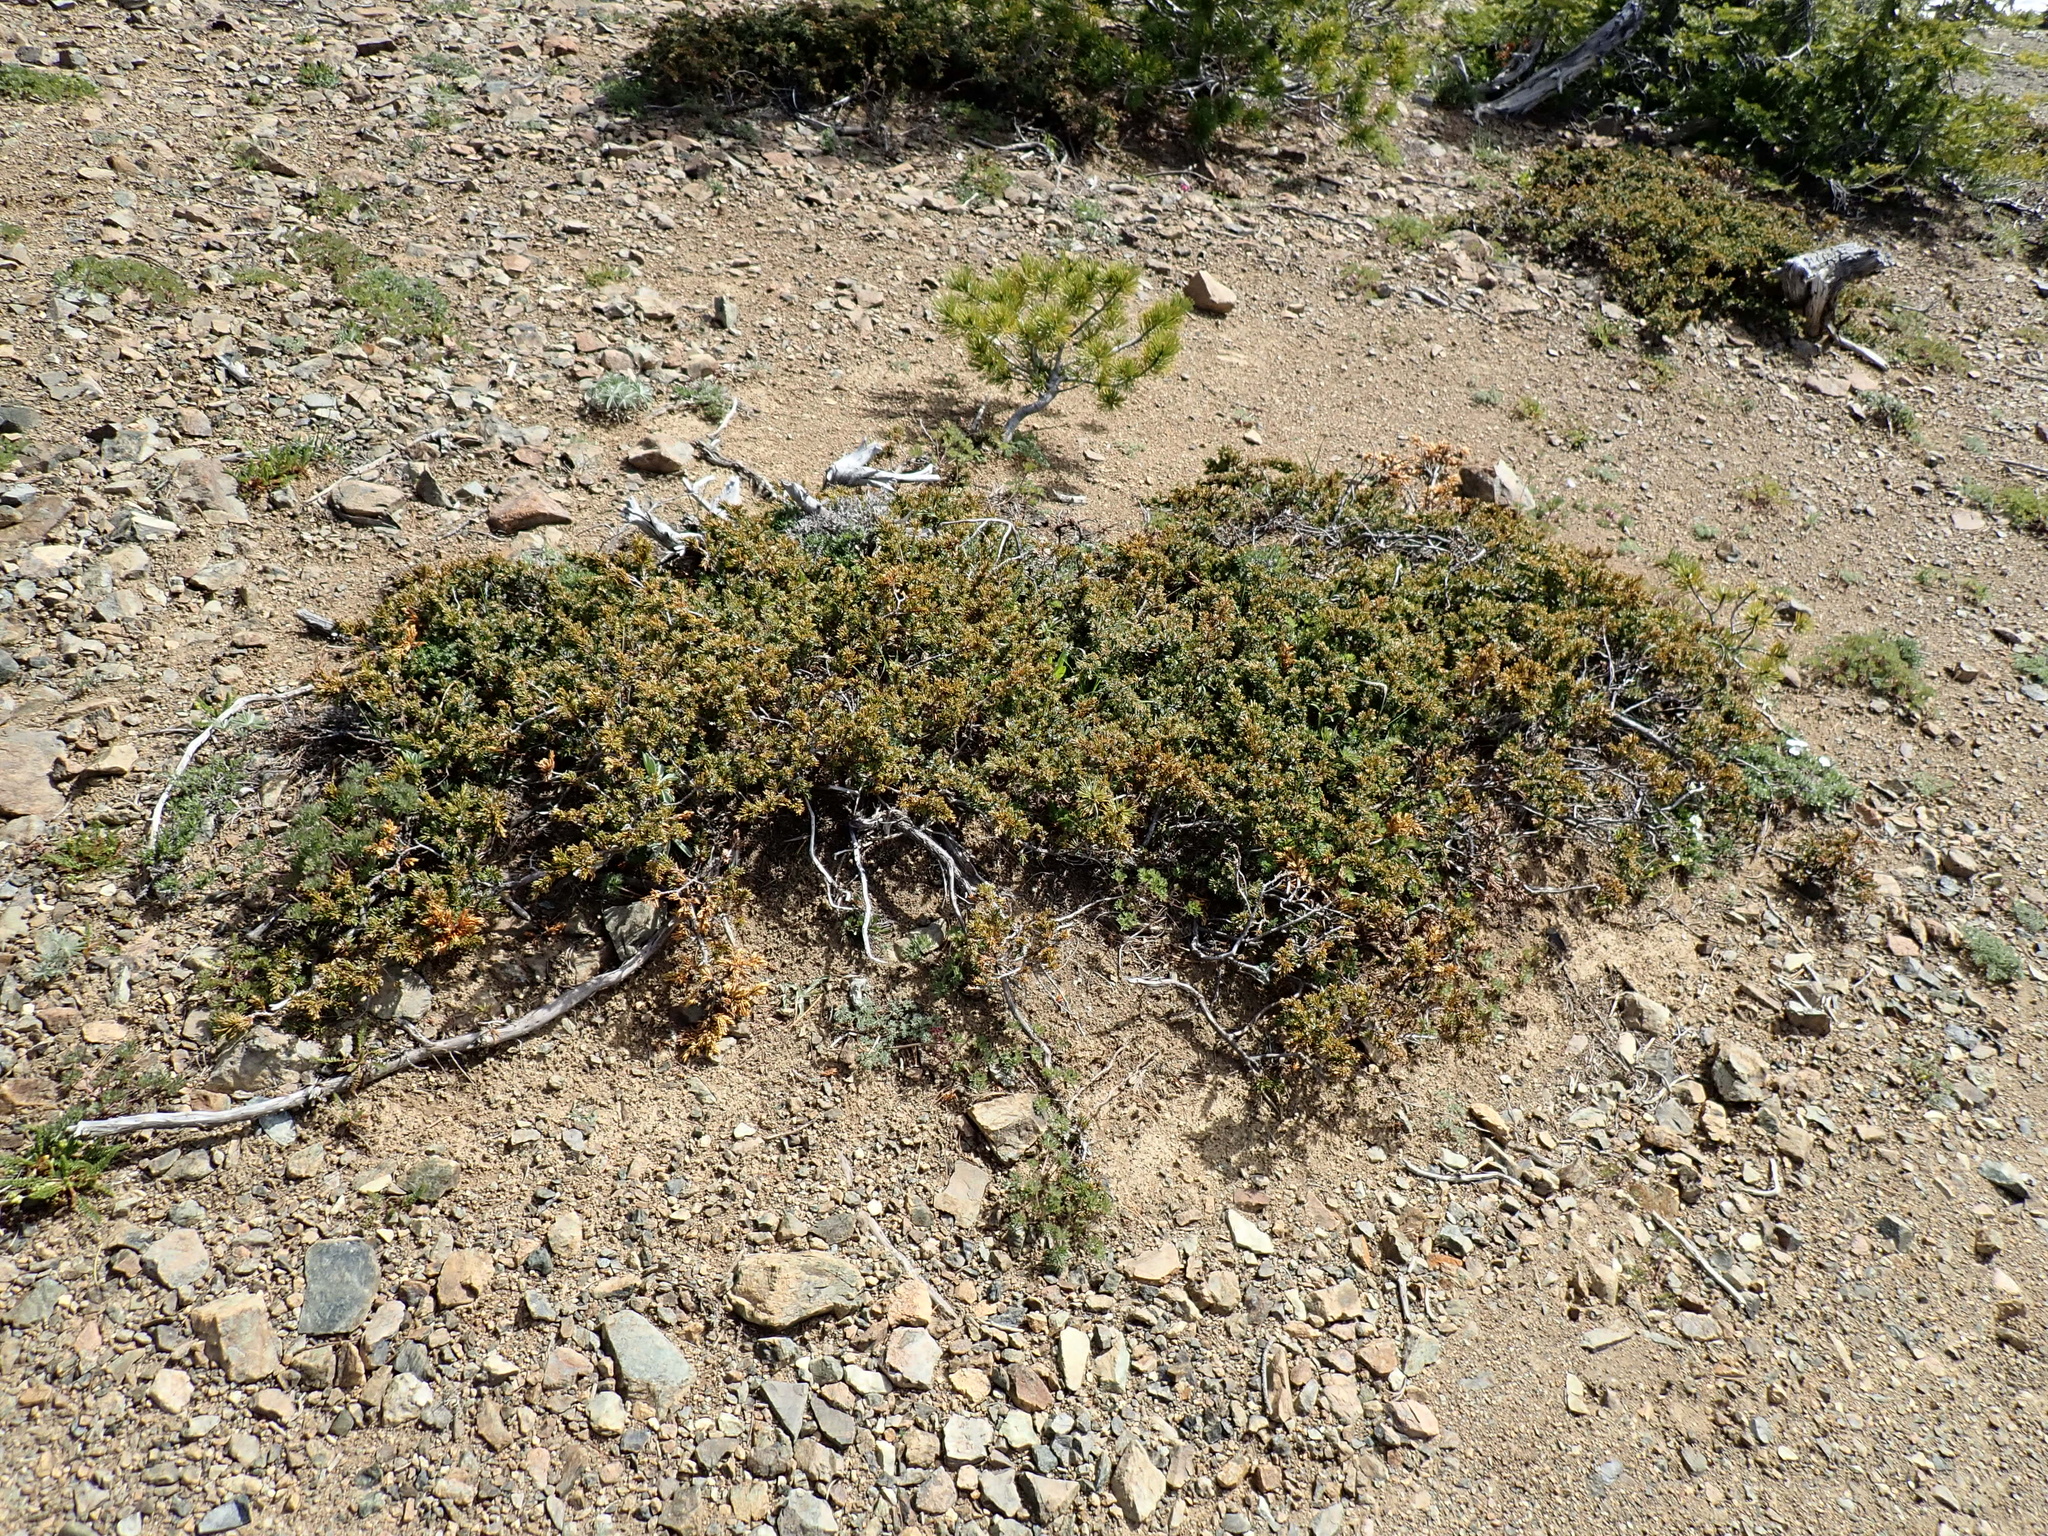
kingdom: Plantae
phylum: Tracheophyta
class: Pinopsida
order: Pinales
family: Cupressaceae
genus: Juniperus
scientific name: Juniperus communis
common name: Common juniper
